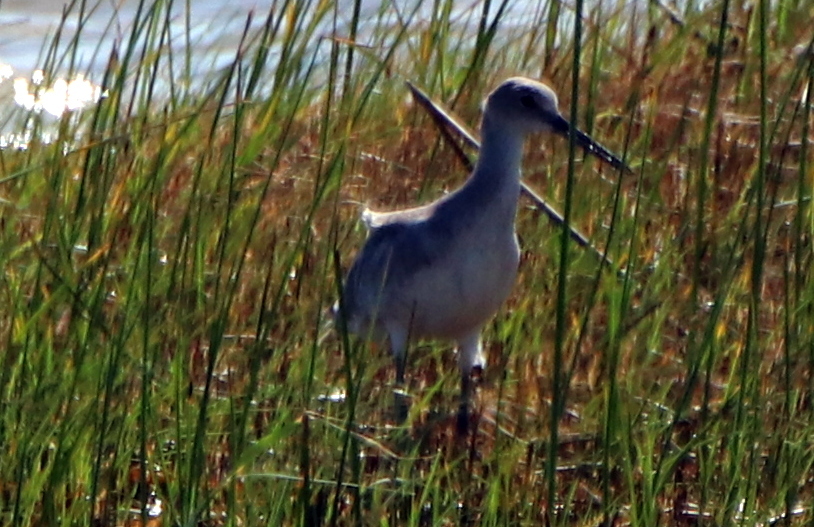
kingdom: Animalia
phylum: Chordata
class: Aves
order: Charadriiformes
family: Scolopacidae
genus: Tringa
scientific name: Tringa semipalmata
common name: Willet
